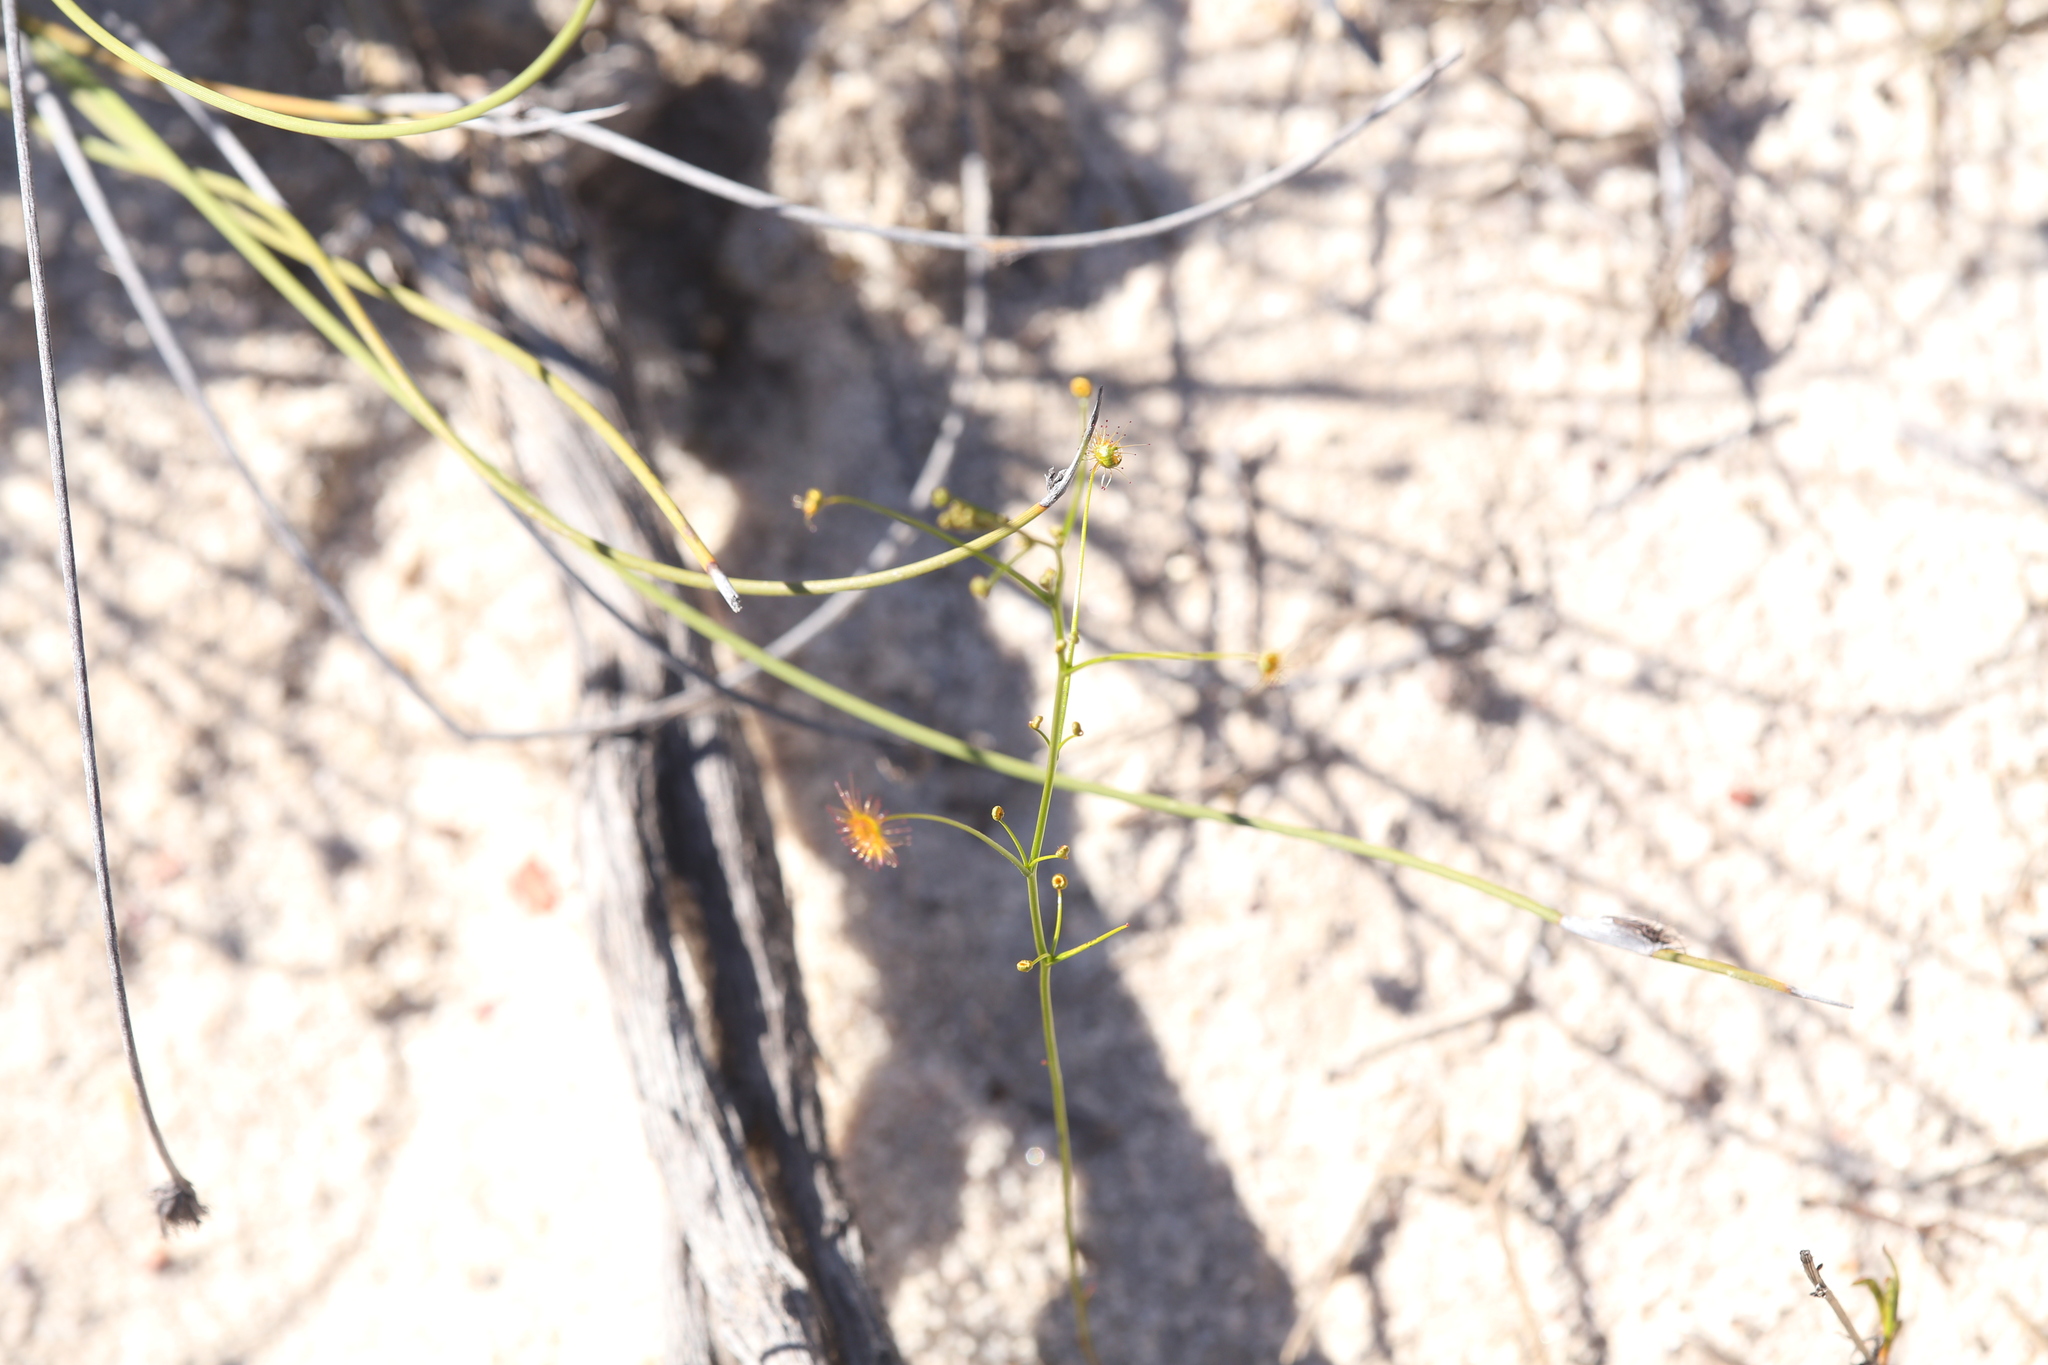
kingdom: Plantae
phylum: Tracheophyta
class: Magnoliopsida
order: Caryophyllales
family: Droseraceae
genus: Drosera
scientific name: Drosera neesii
